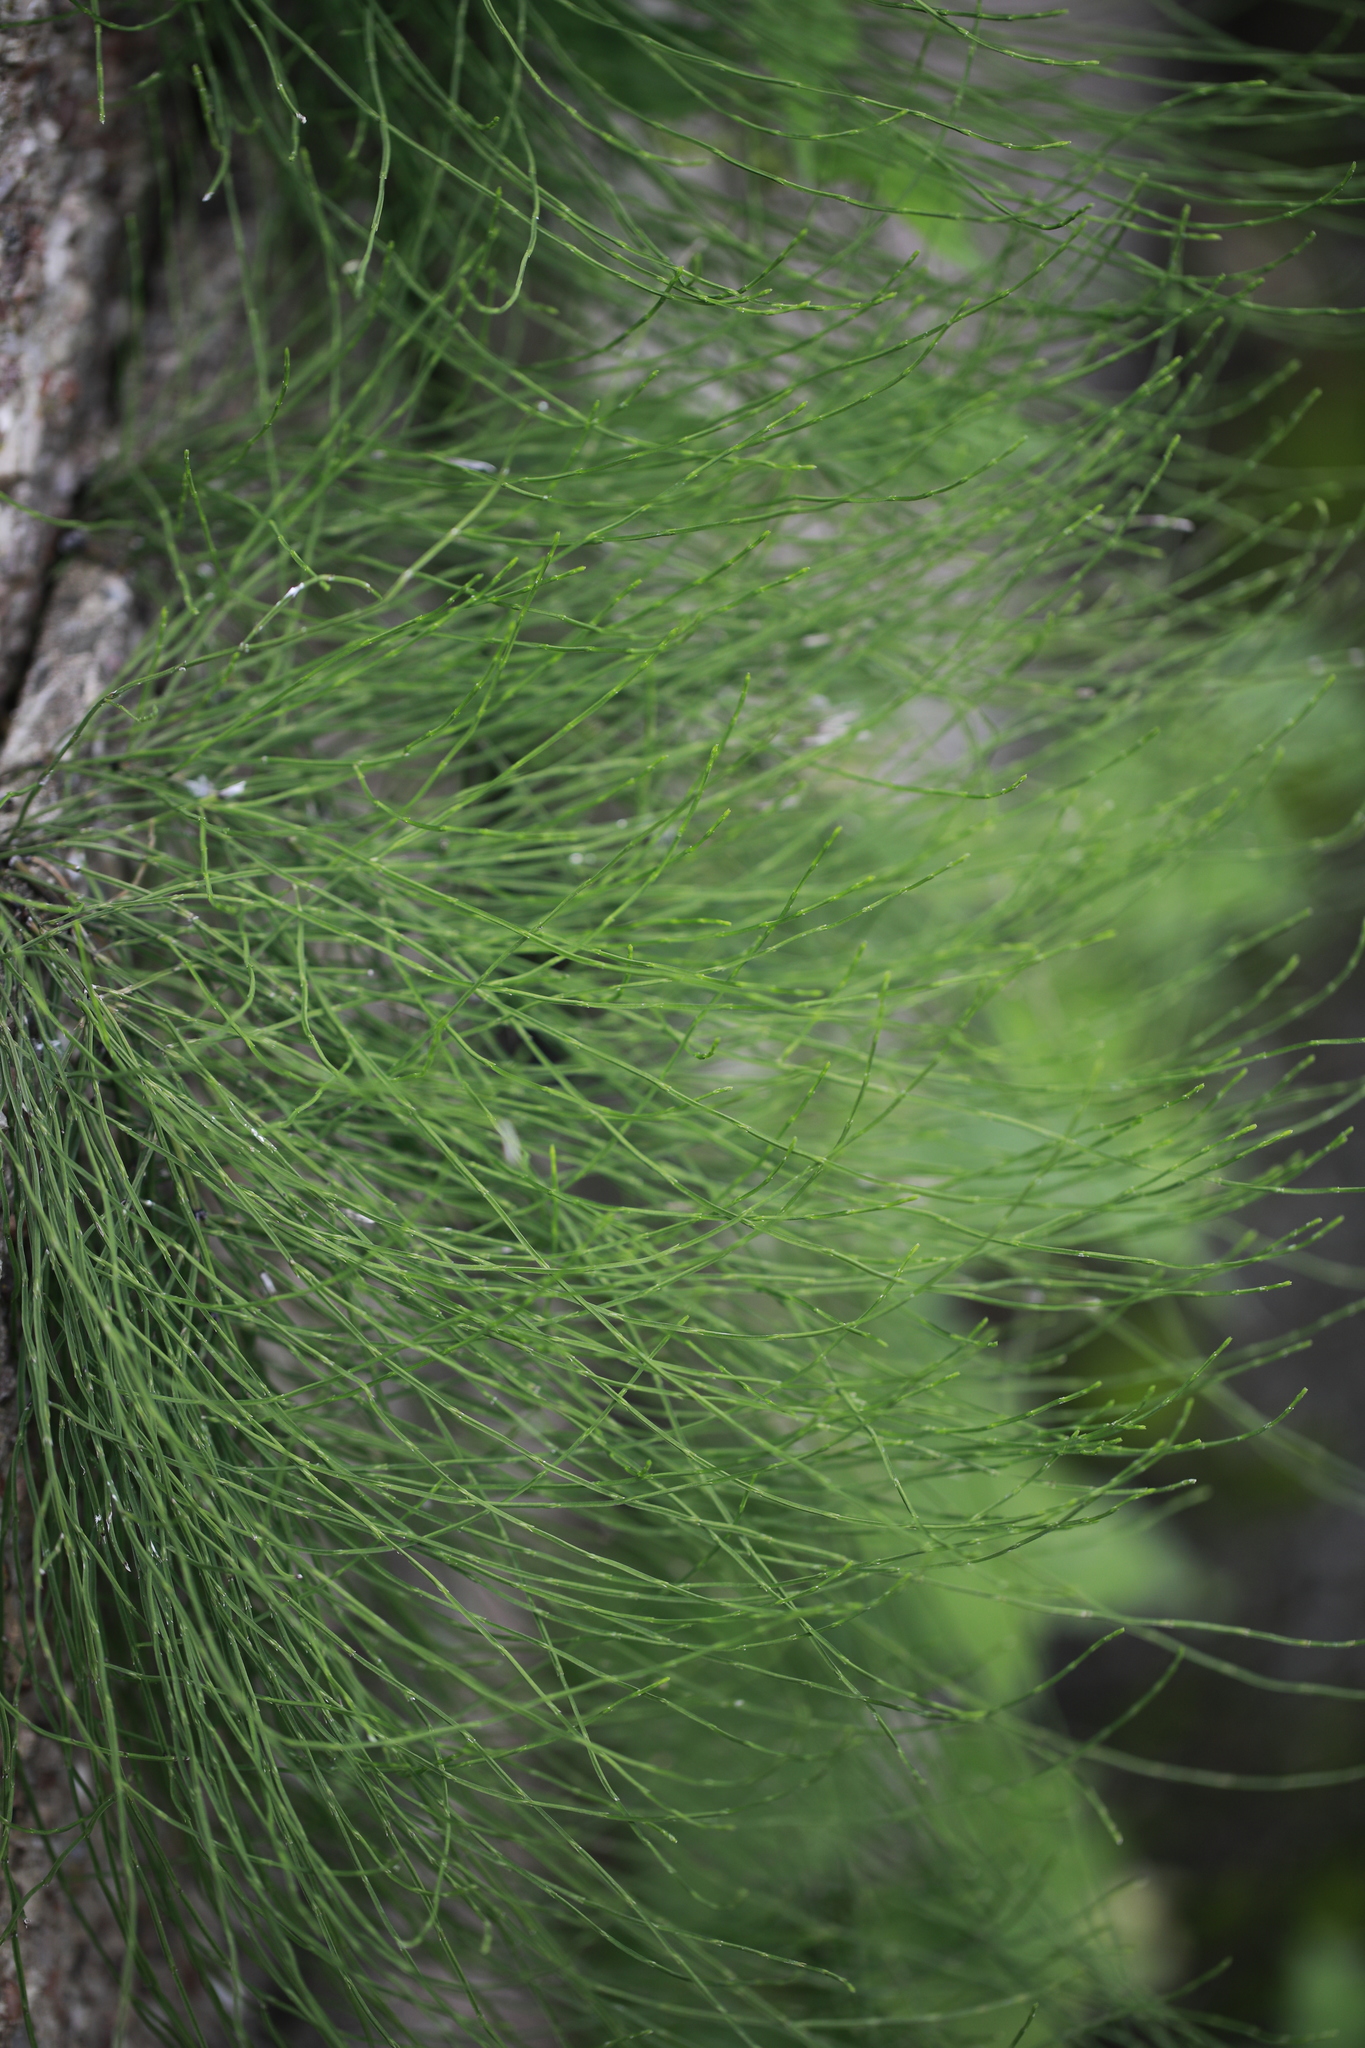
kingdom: Plantae
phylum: Tracheophyta
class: Polypodiopsida
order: Equisetales
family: Equisetaceae
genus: Equisetum
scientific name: Equisetum arvense
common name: Field horsetail
